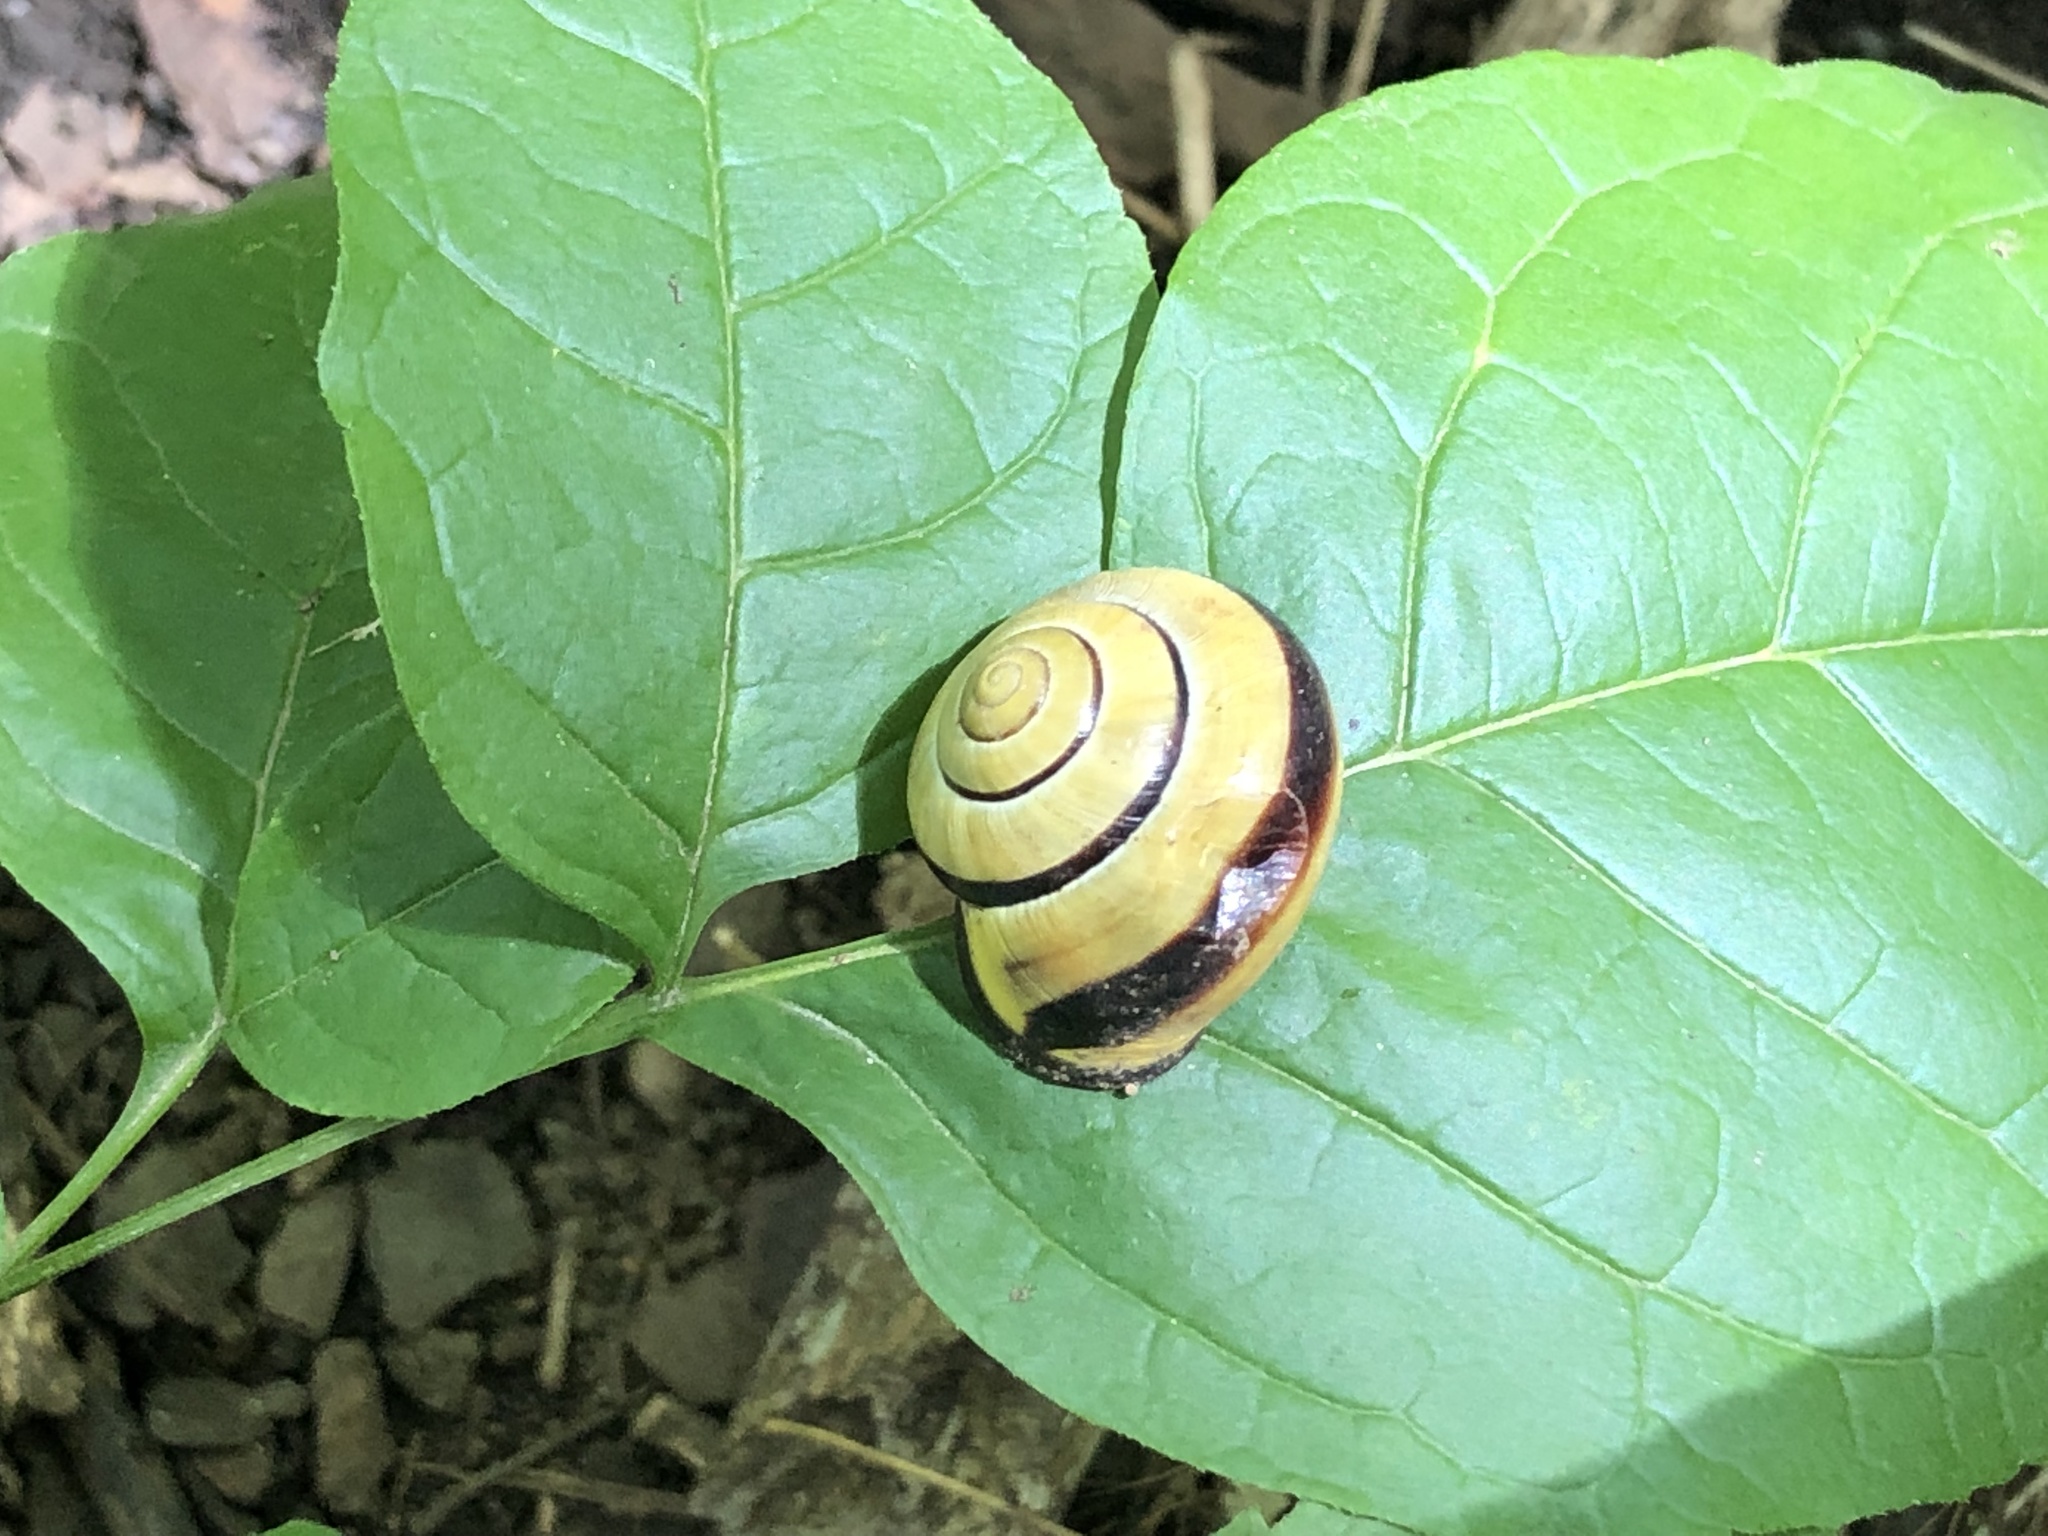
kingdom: Animalia
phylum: Mollusca
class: Gastropoda
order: Stylommatophora
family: Helicidae
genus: Cepaea
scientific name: Cepaea nemoralis
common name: Grovesnail
